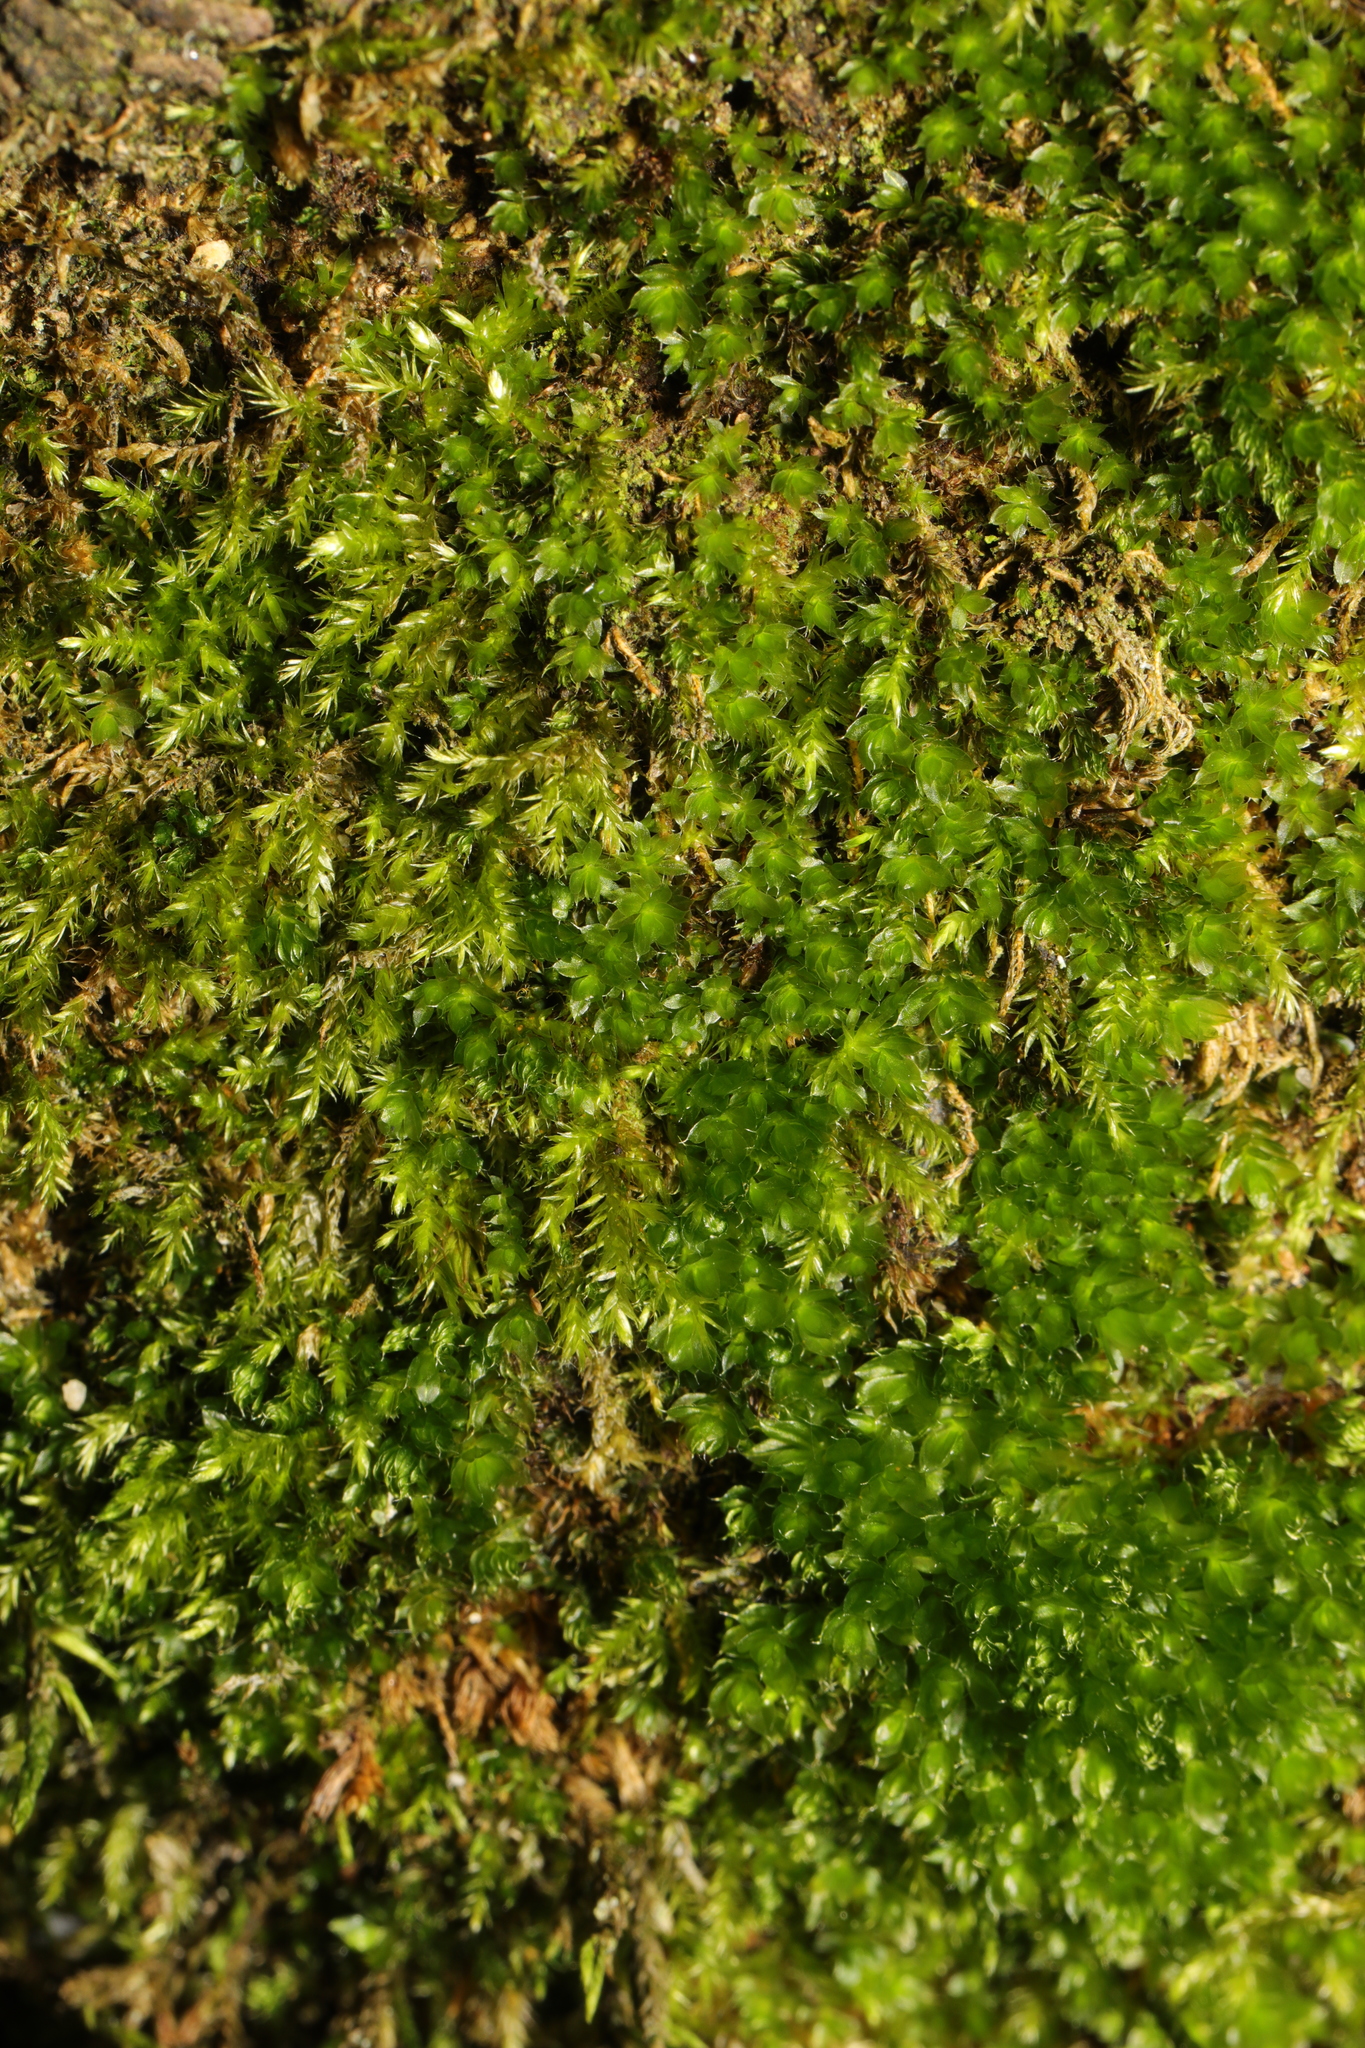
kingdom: Plantae
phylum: Bryophyta
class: Bryopsida
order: Bryales
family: Bryaceae
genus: Rosulabryum
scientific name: Rosulabryum capillare
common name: Capillary thread-moss
